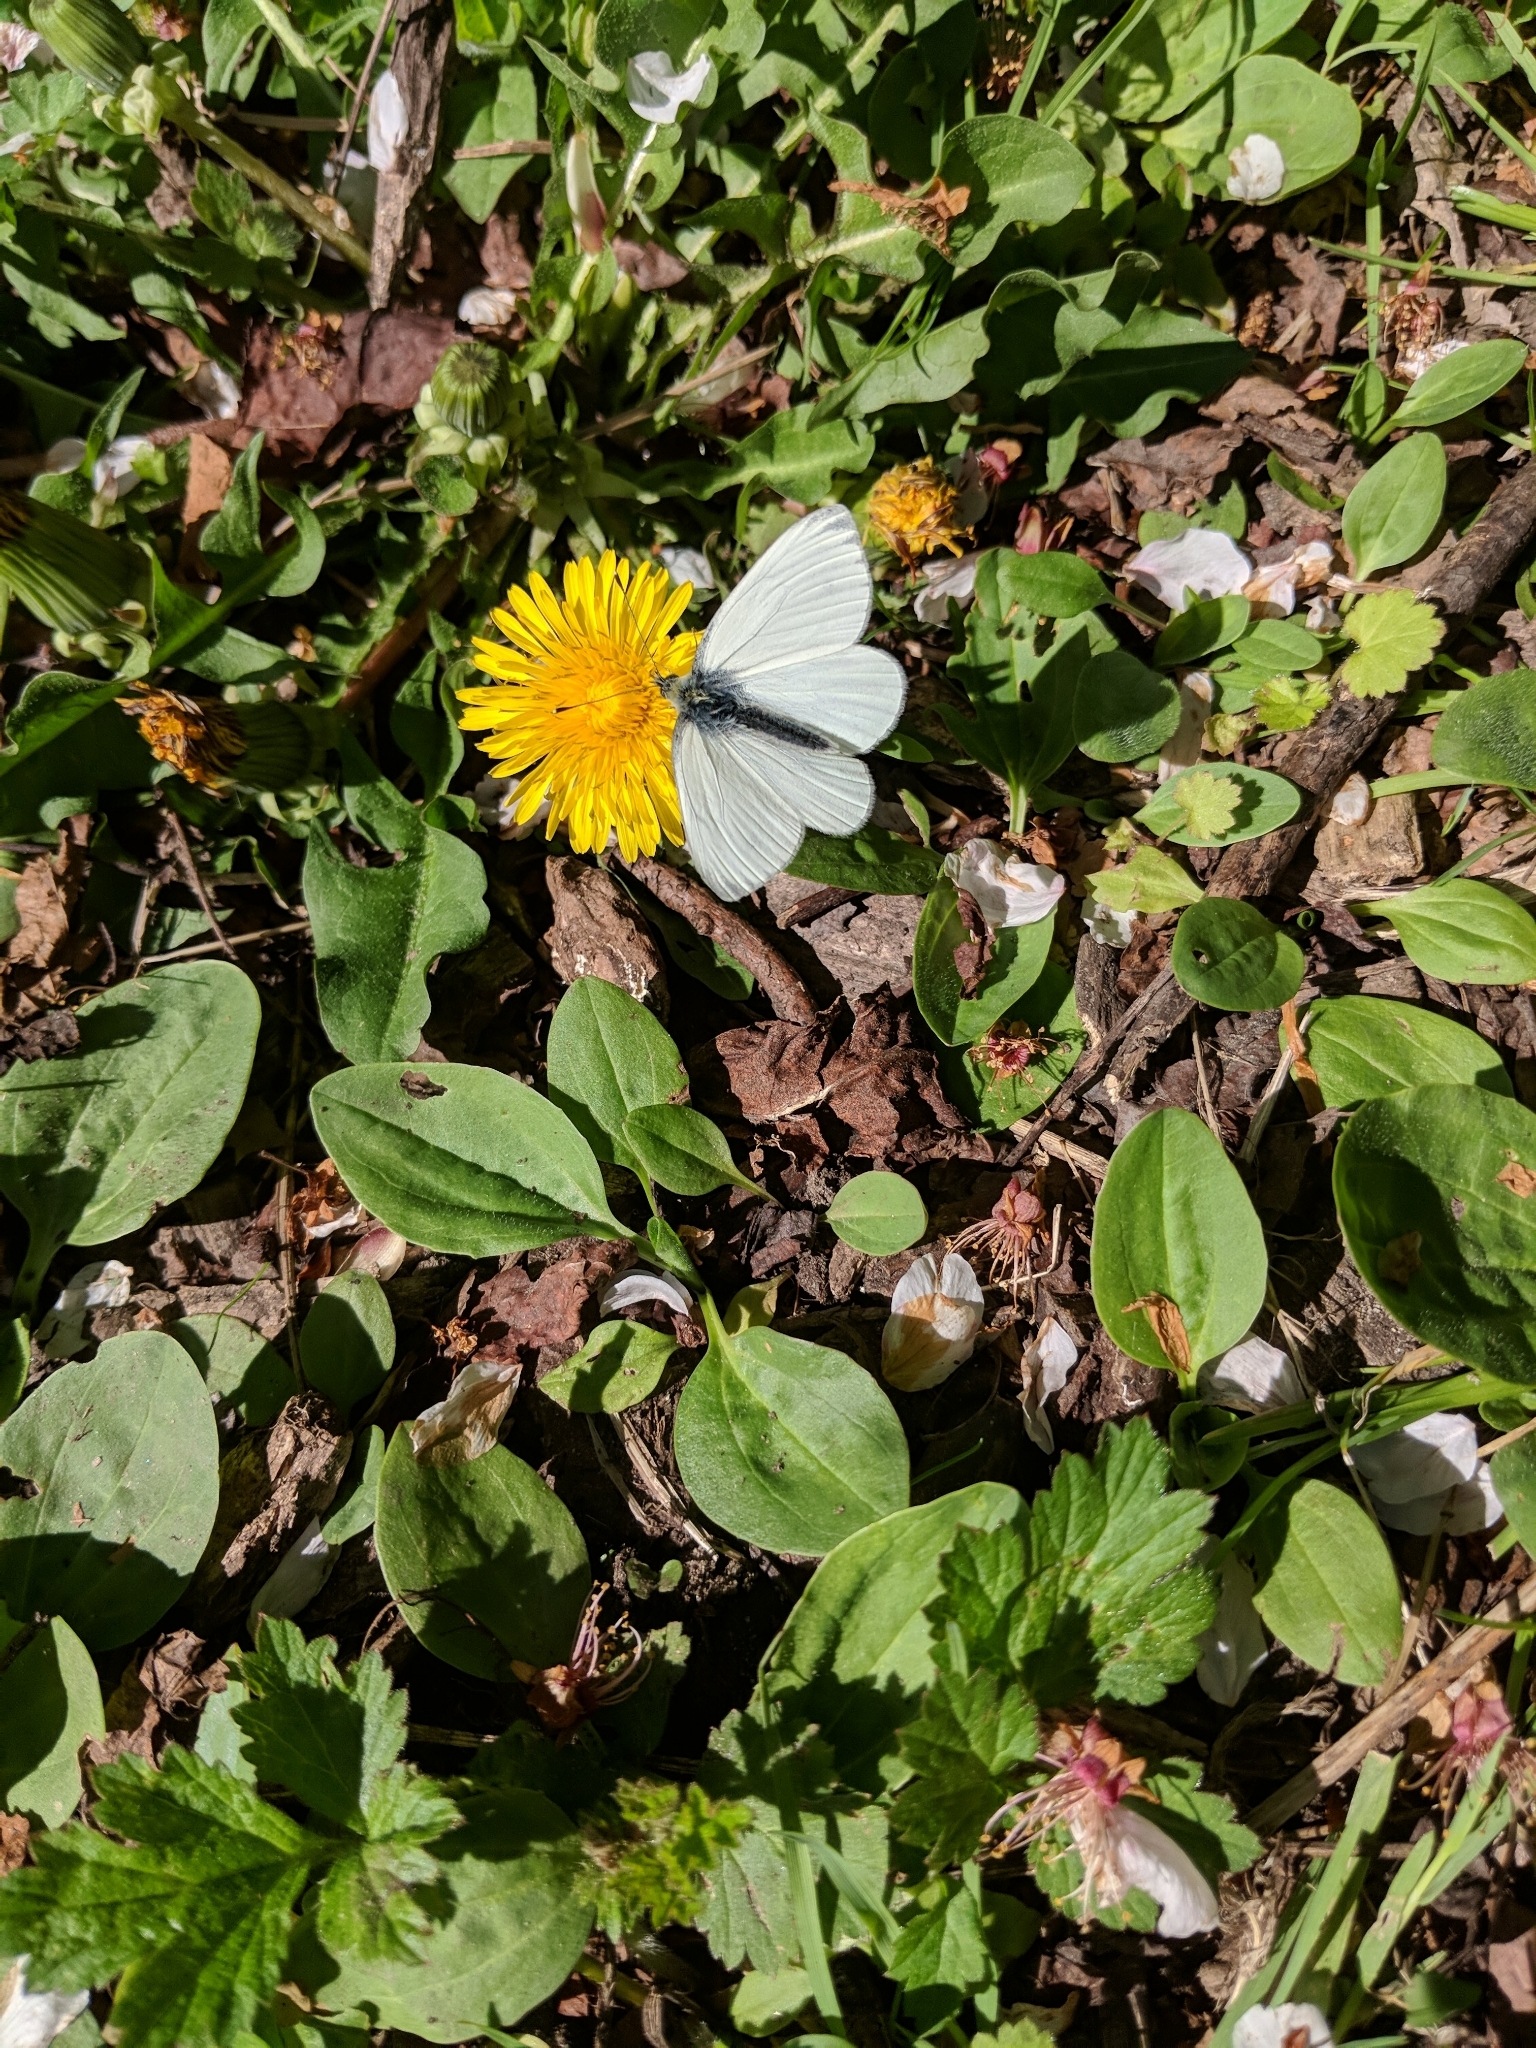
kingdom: Animalia
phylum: Arthropoda
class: Insecta
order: Lepidoptera
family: Pieridae
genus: Pieris
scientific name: Pieris napi
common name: Green-veined white
